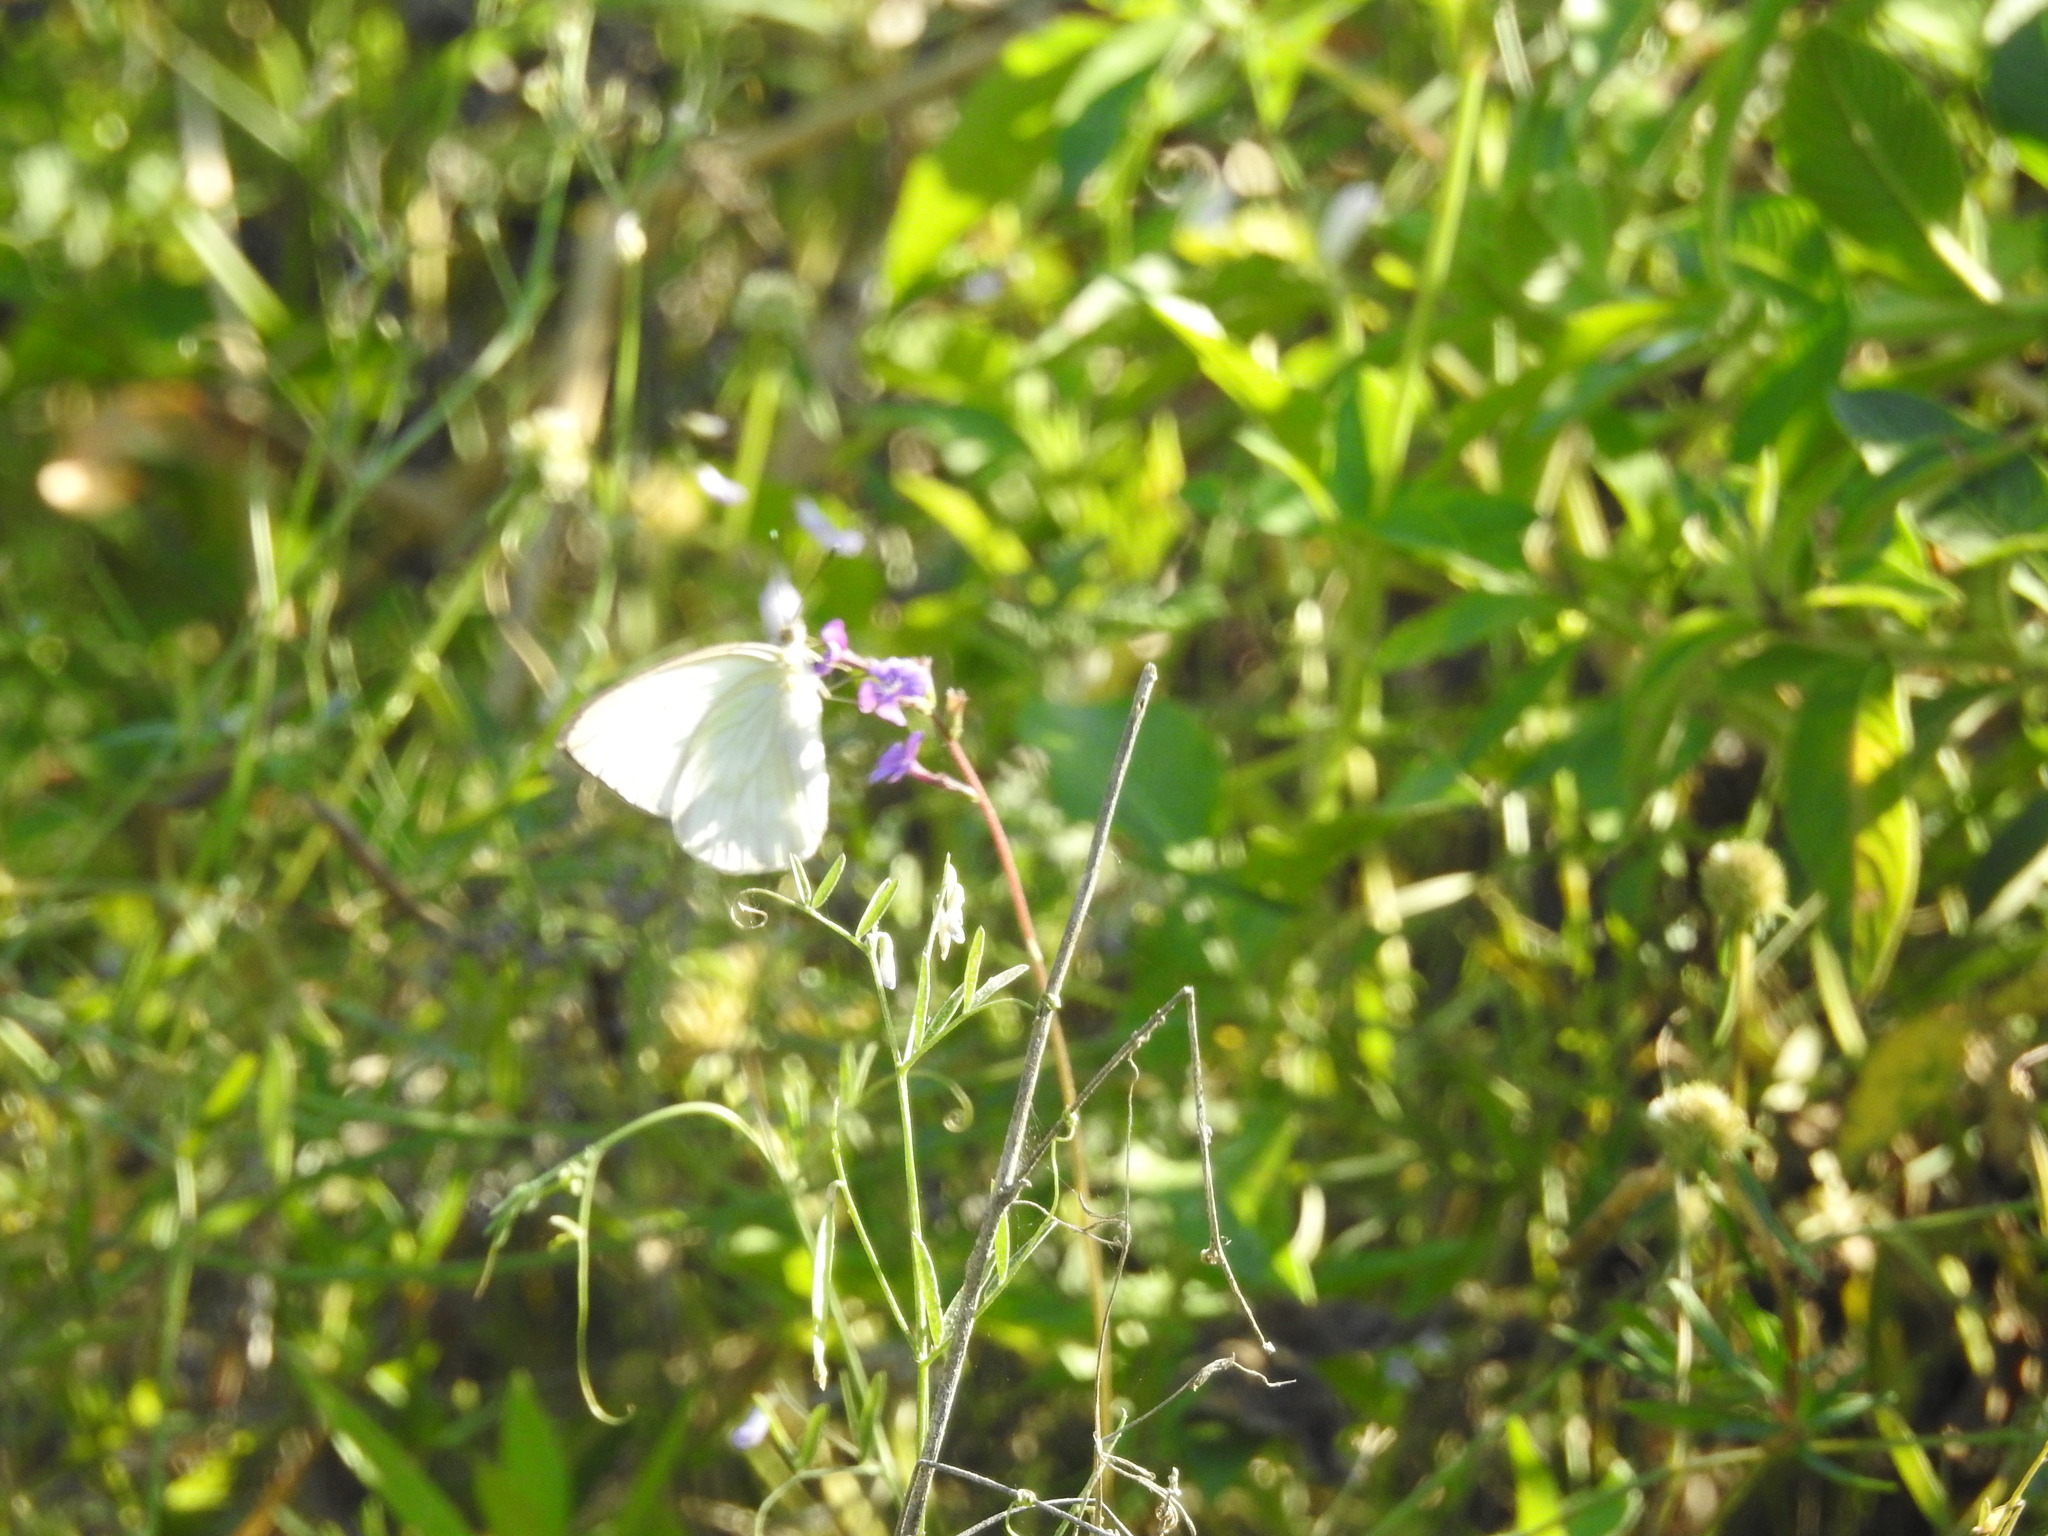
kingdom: Animalia
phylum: Arthropoda
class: Insecta
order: Lepidoptera
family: Pieridae
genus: Ascia
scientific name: Ascia monuste
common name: Great southern white
